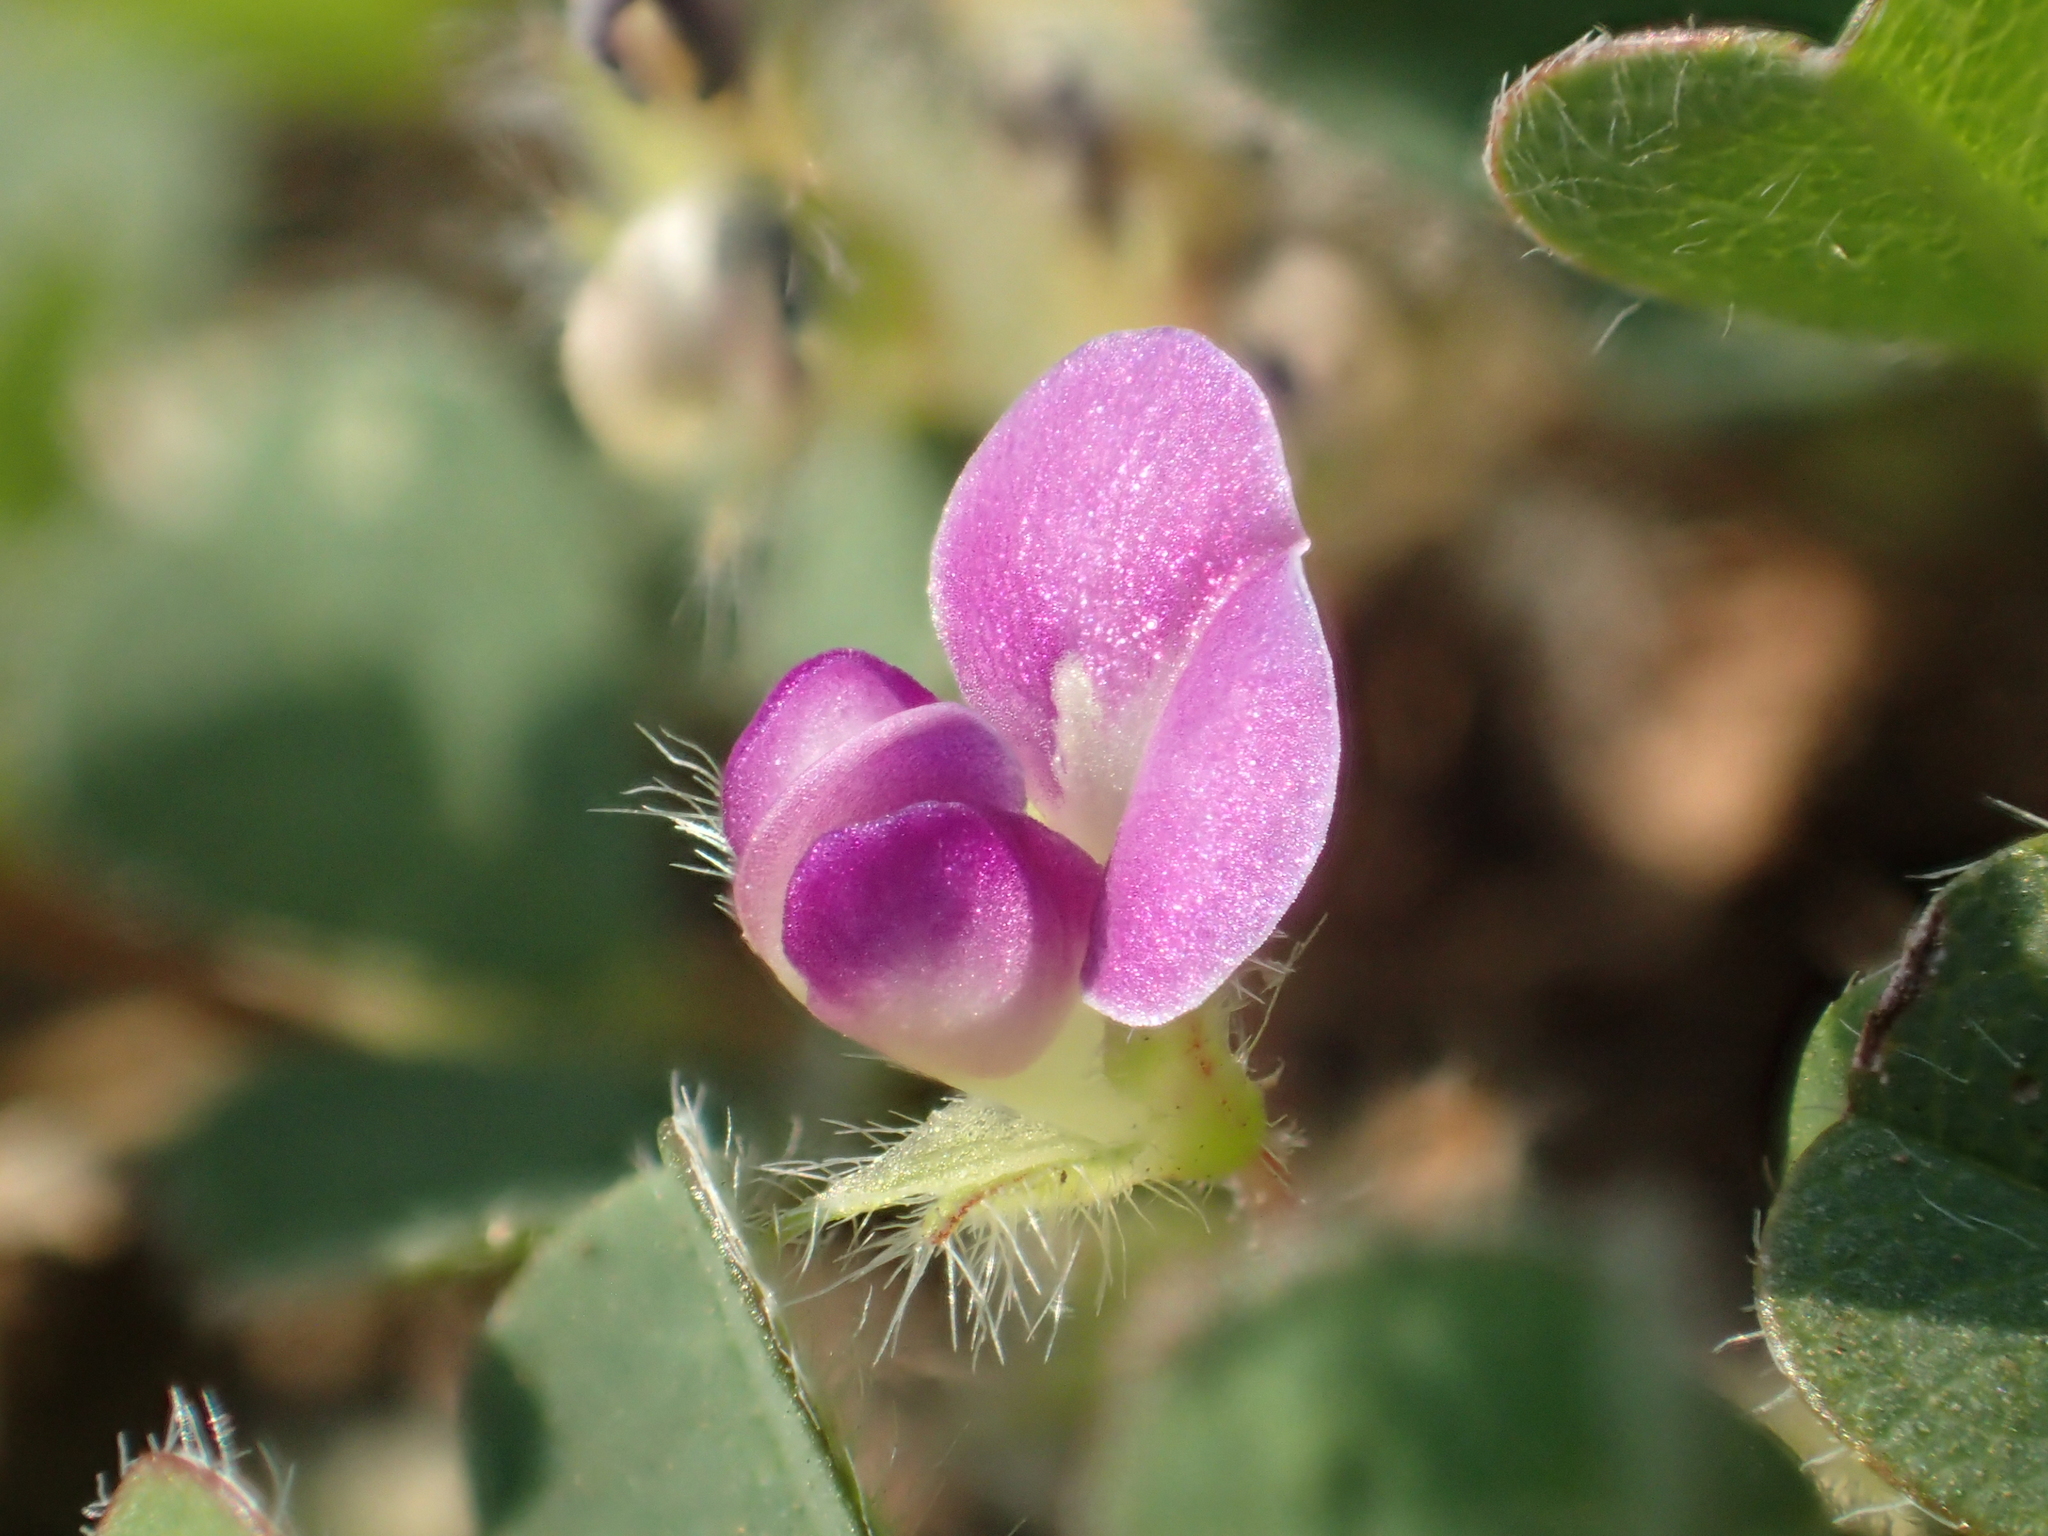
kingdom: Plantae
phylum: Tracheophyta
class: Magnoliopsida
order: Fabales
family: Fabaceae
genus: Grona
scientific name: Grona triflora
